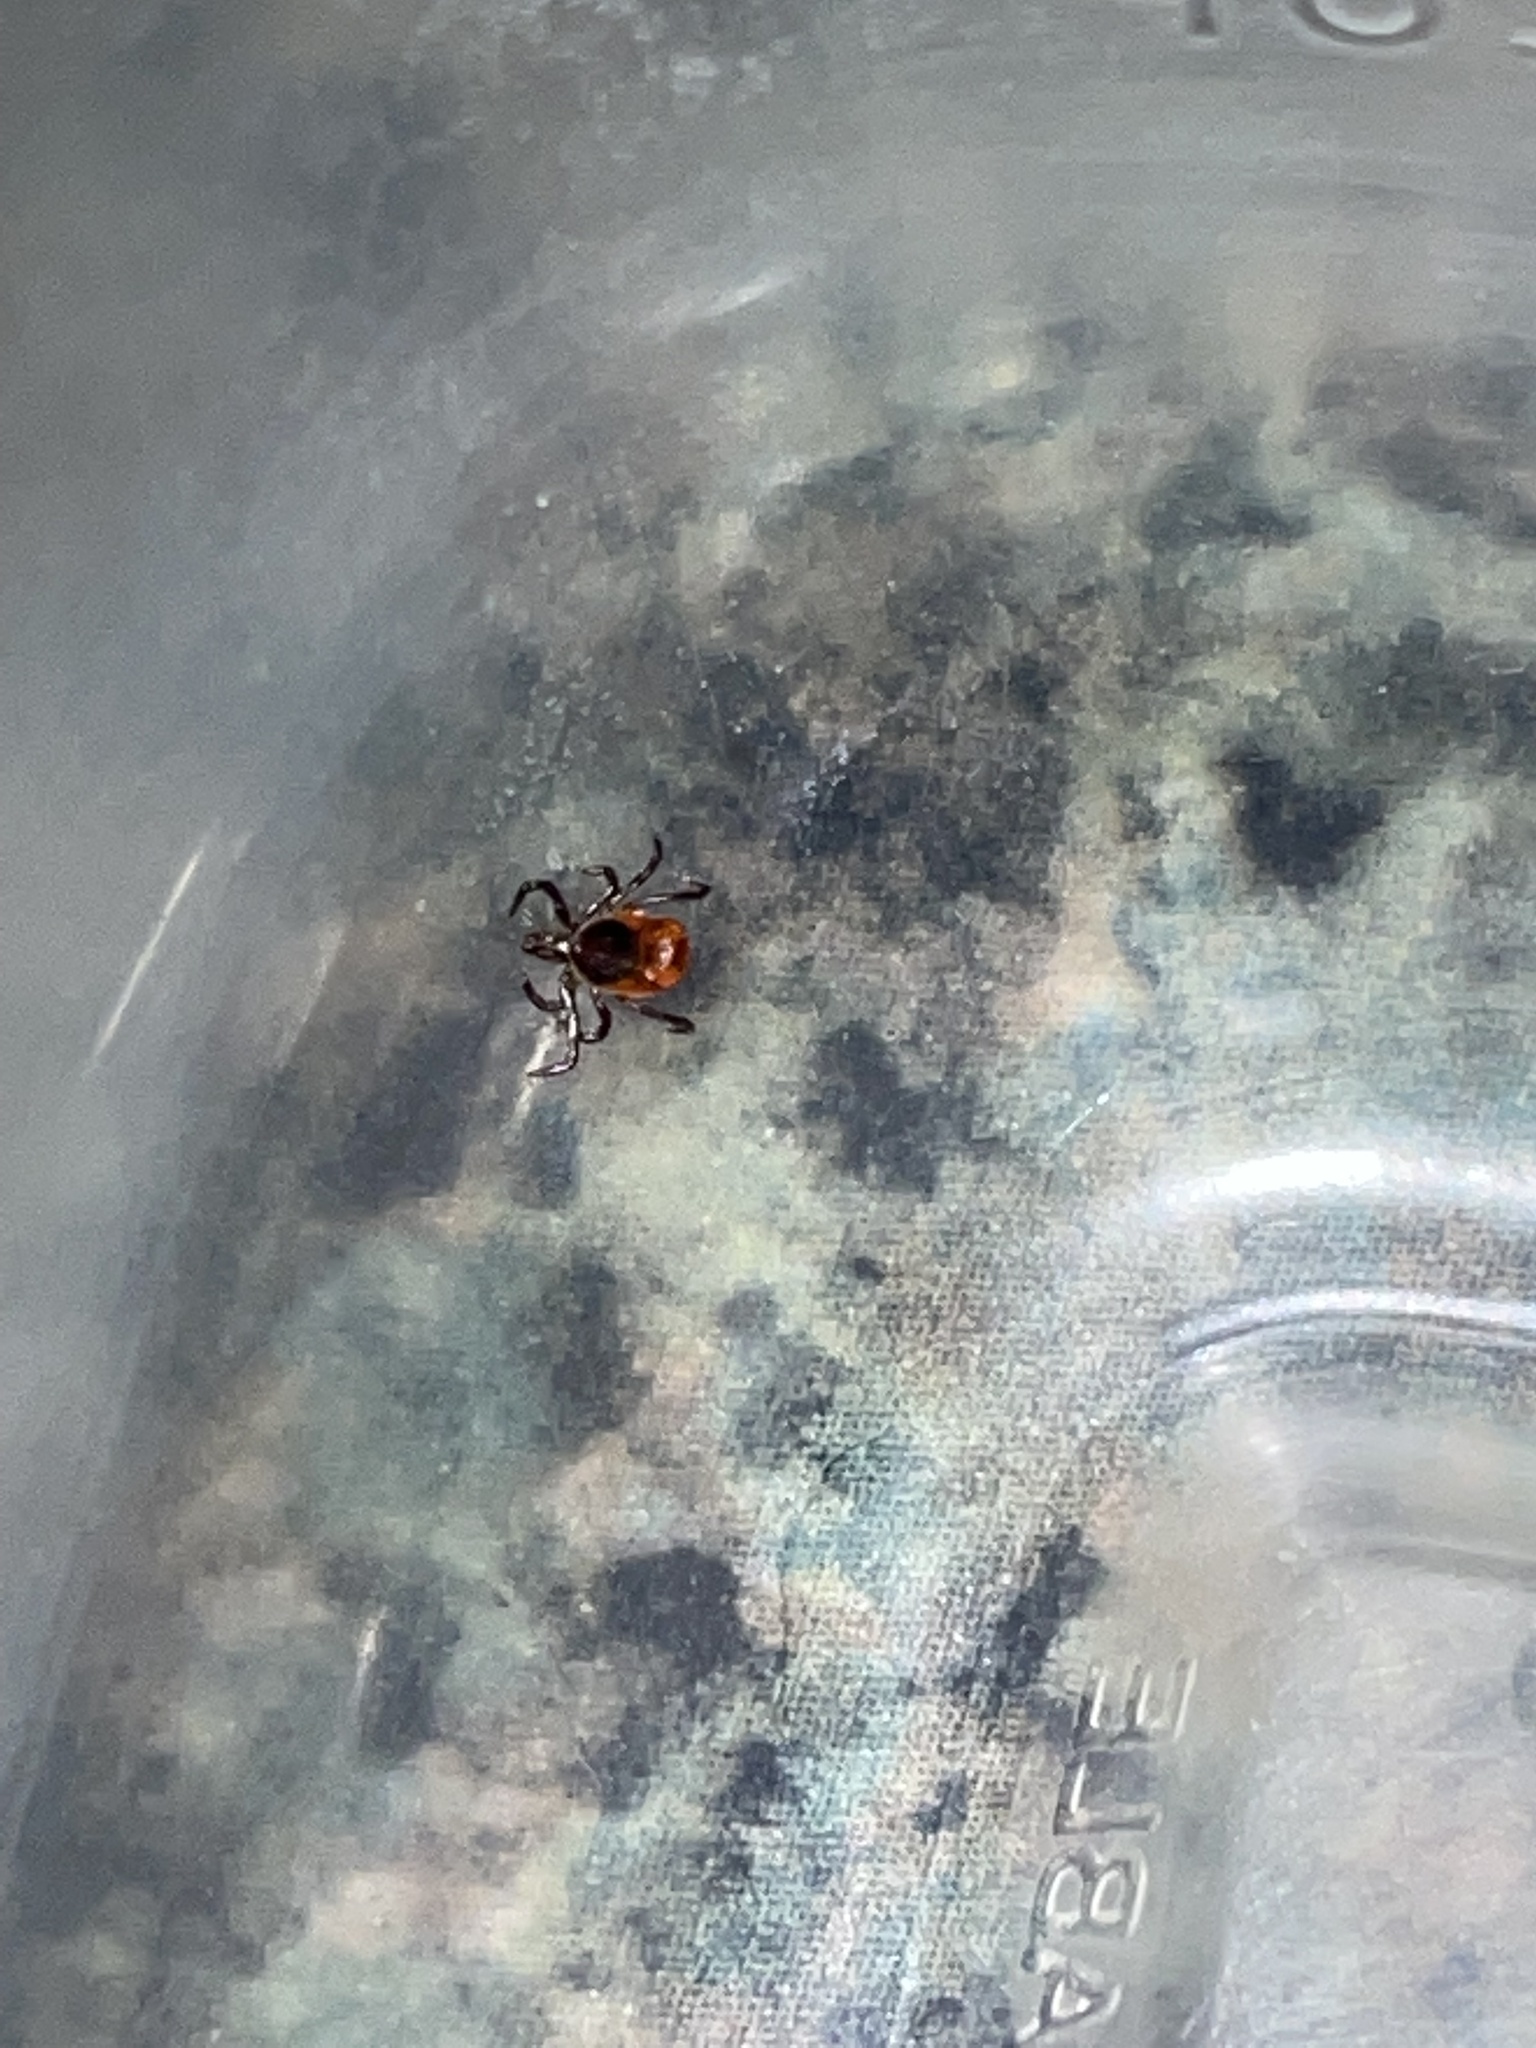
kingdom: Animalia
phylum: Arthropoda
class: Arachnida
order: Ixodida
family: Ixodidae
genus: Ixodes
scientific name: Ixodes scapularis
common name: Black legged tick
